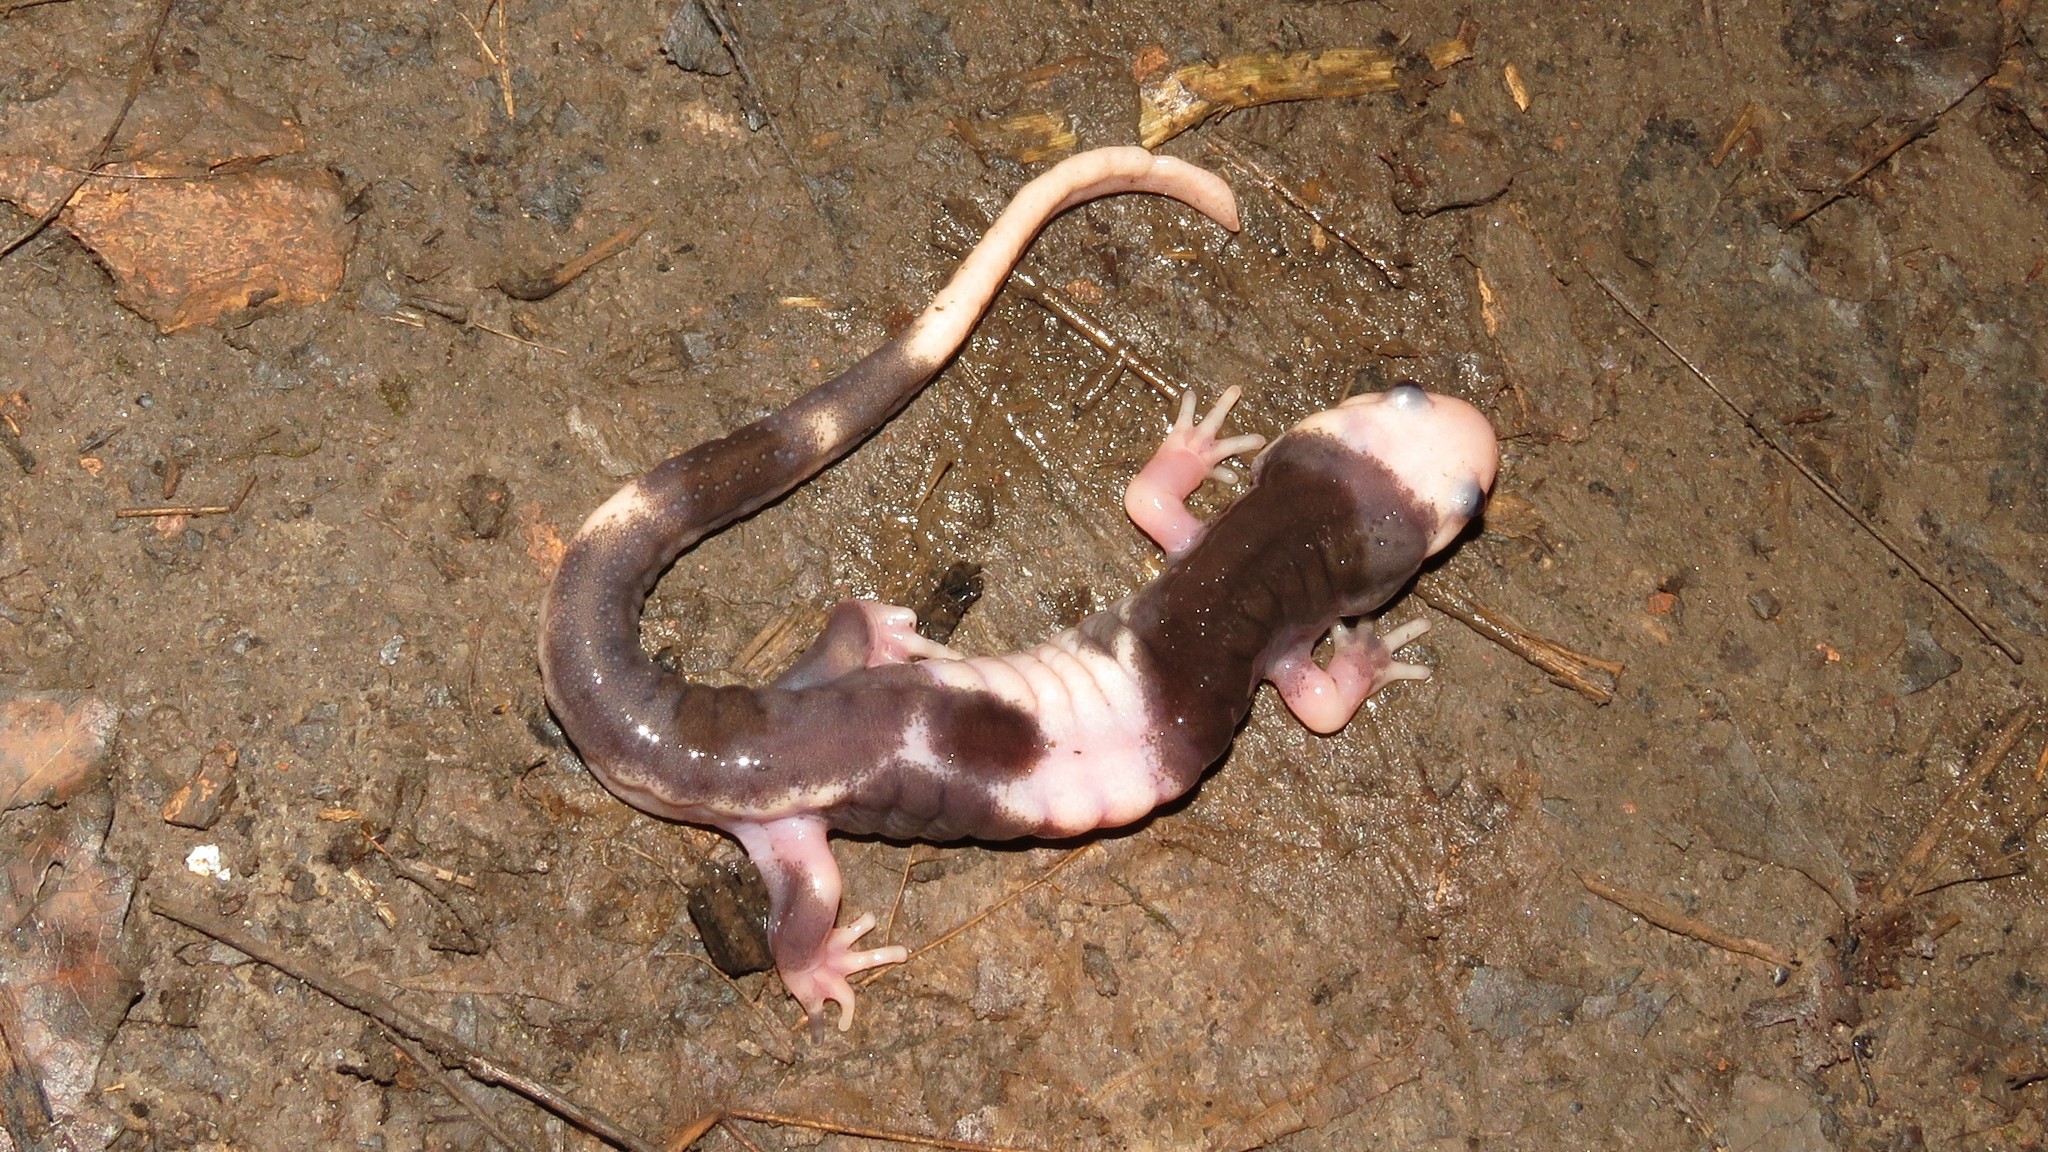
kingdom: Animalia
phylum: Chordata
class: Amphibia
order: Caudata
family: Ambystomatidae
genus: Ambystoma
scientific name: Ambystoma maculatum
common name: Spotted salamander
